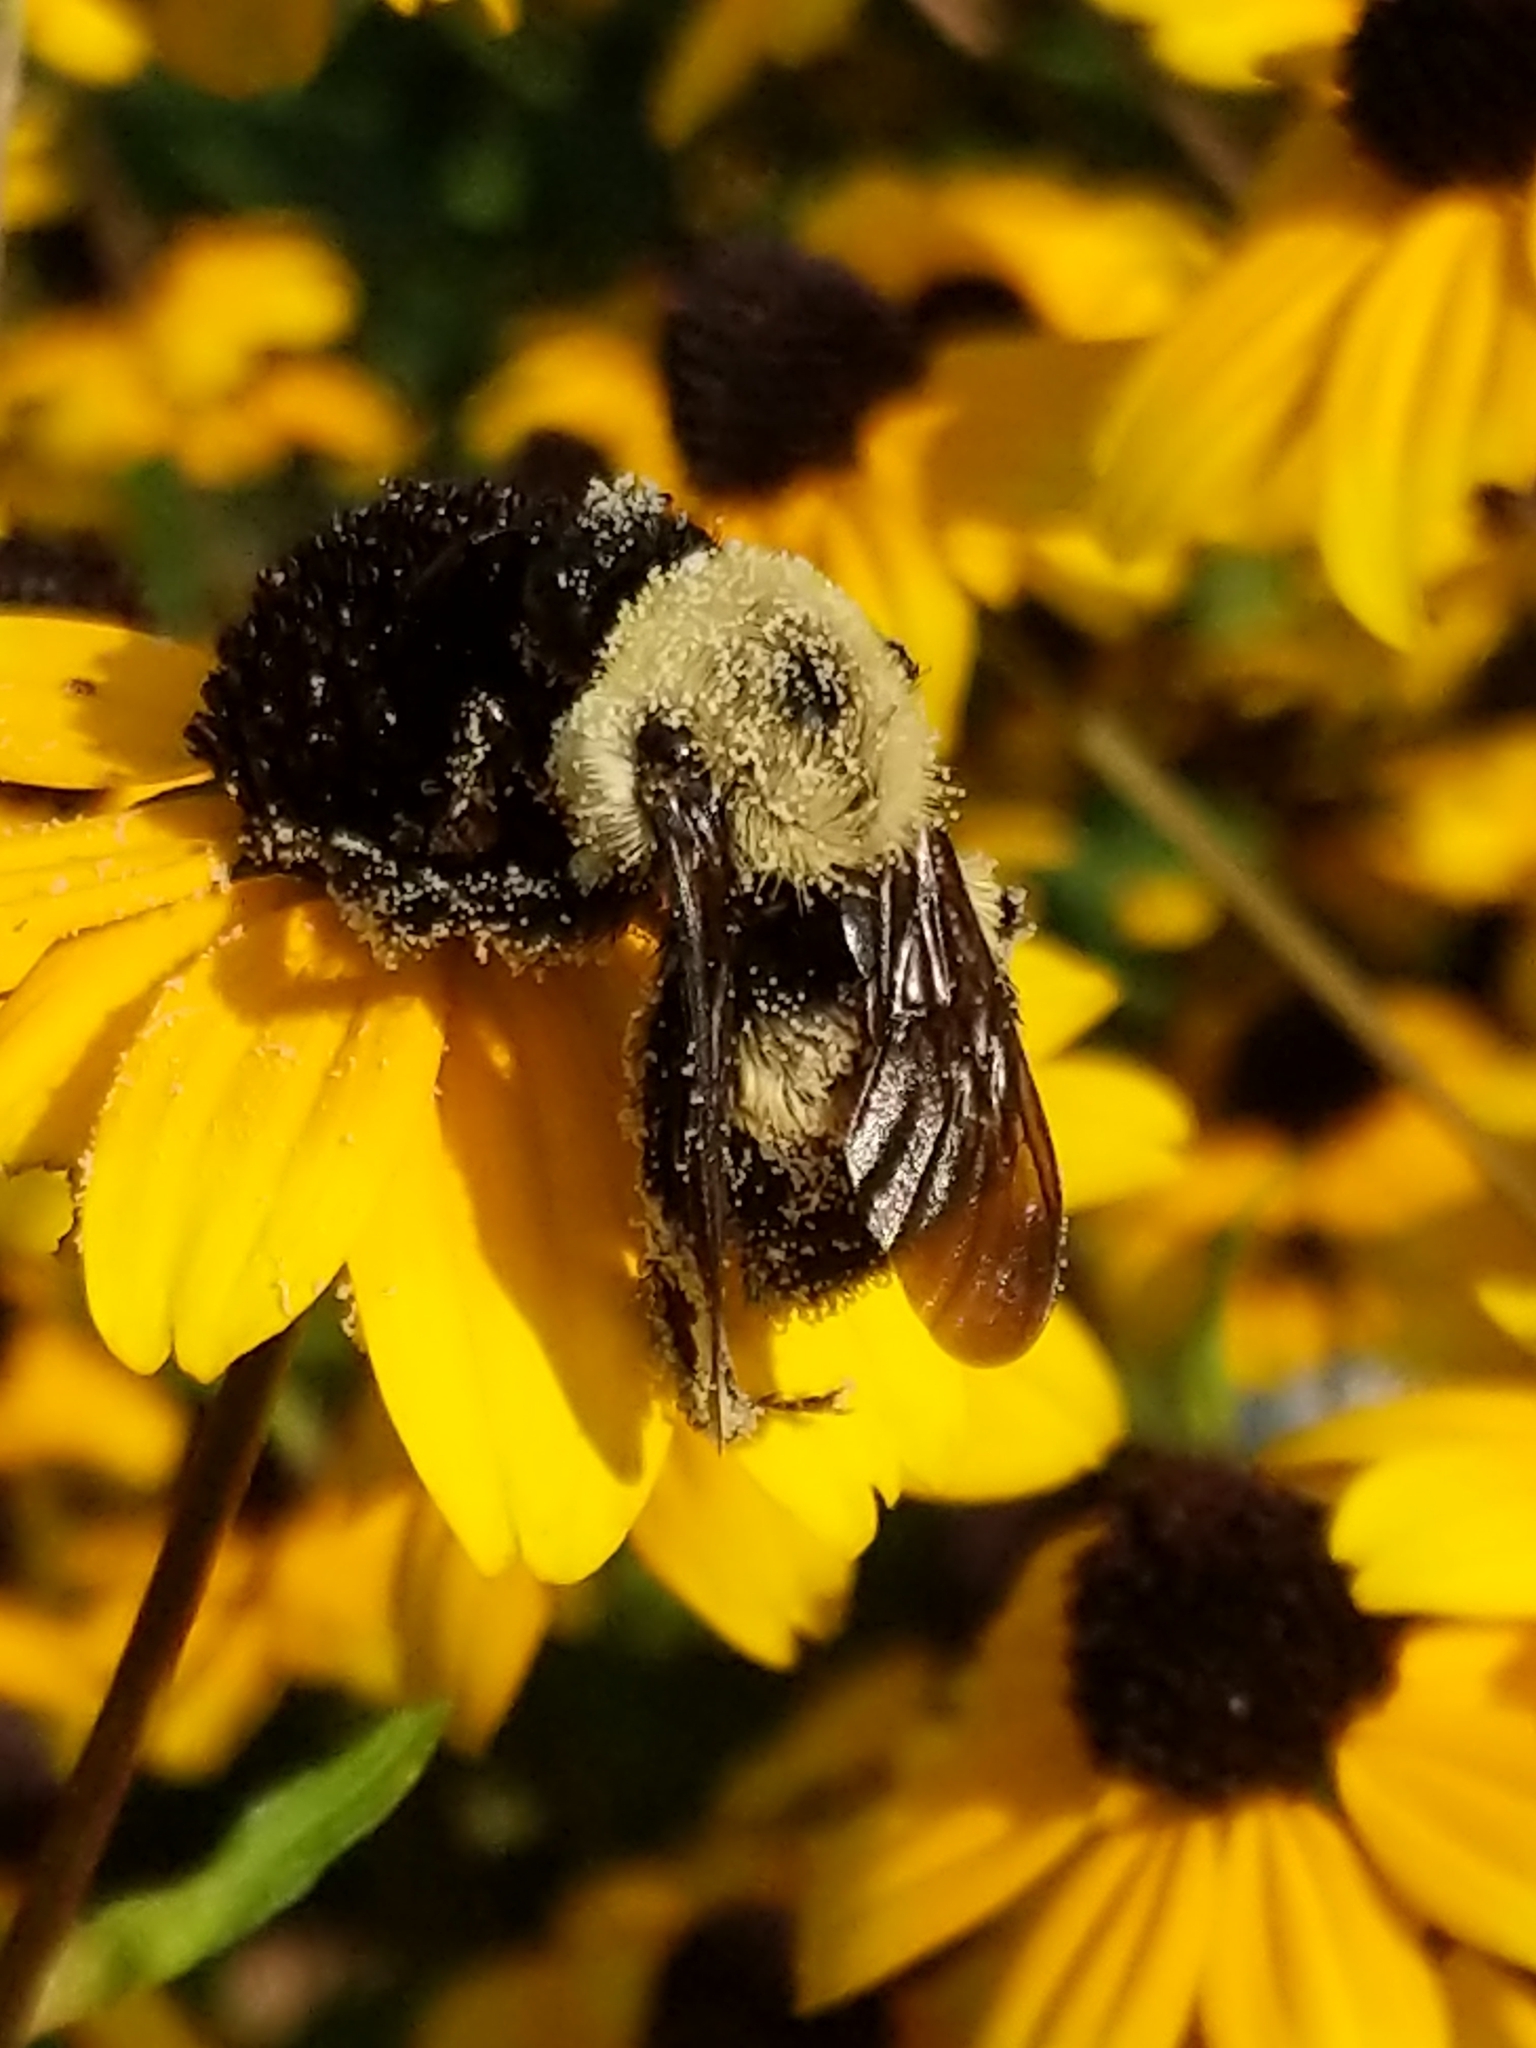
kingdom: Animalia
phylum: Arthropoda
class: Insecta
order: Hymenoptera
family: Apidae
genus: Bombus
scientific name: Bombus griseocollis
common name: Brown-belted bumble bee
